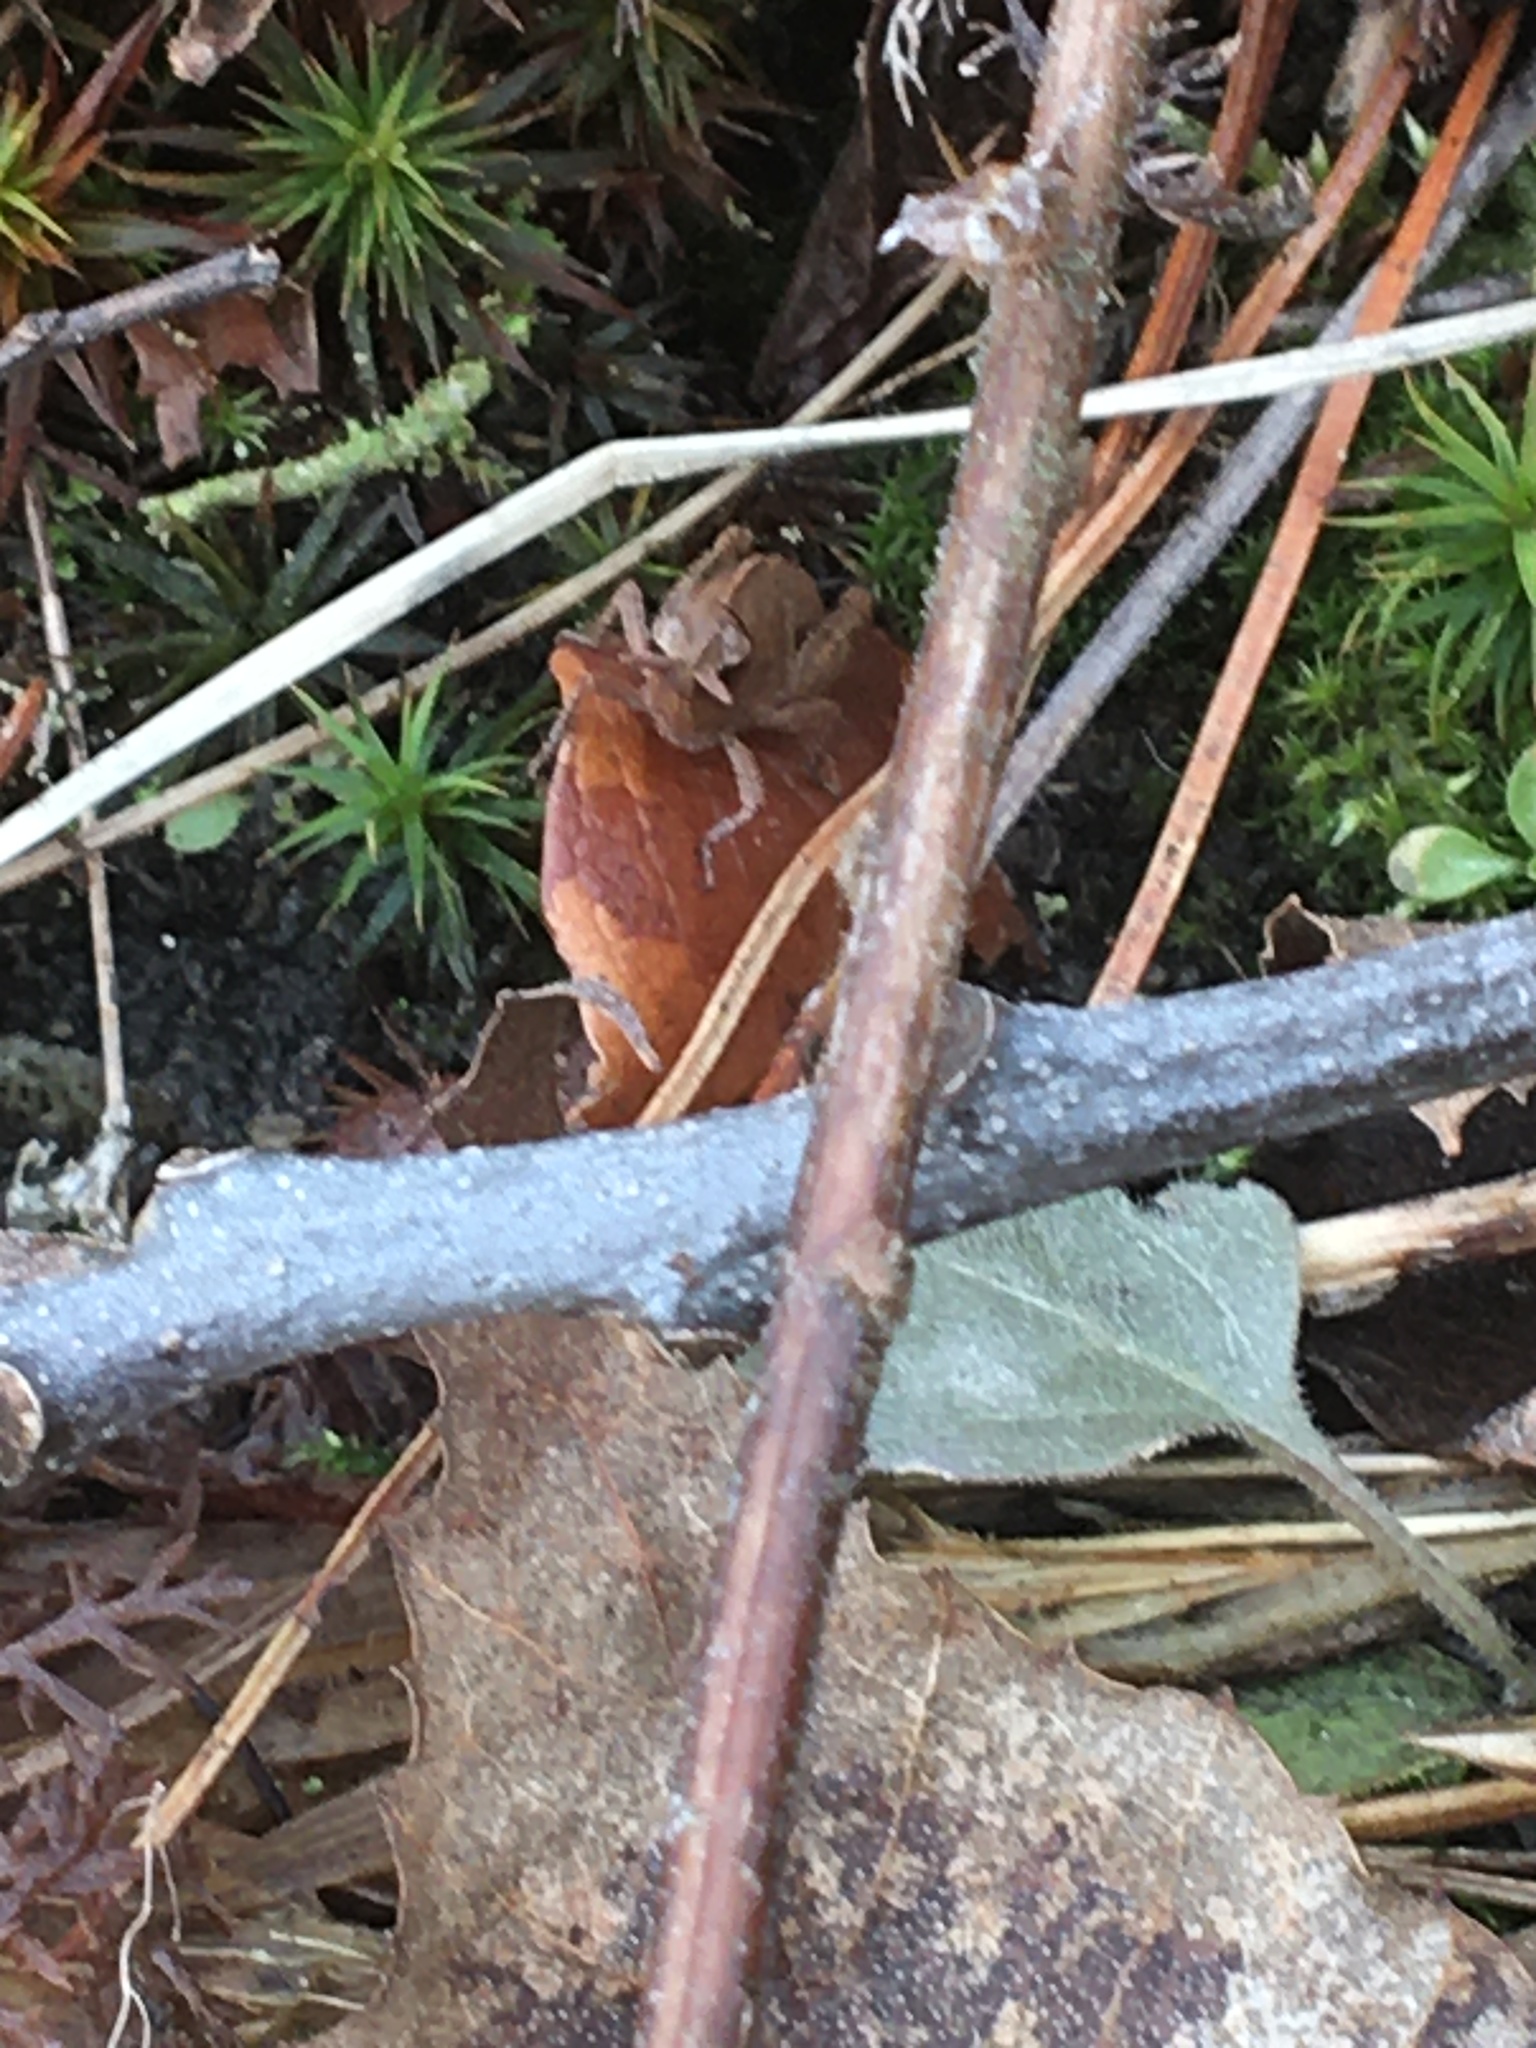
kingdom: Animalia
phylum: Arthropoda
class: Insecta
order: Orthoptera
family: Acrididae
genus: Chortophaga
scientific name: Chortophaga viridifasciata
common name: Green-striped grasshopper
